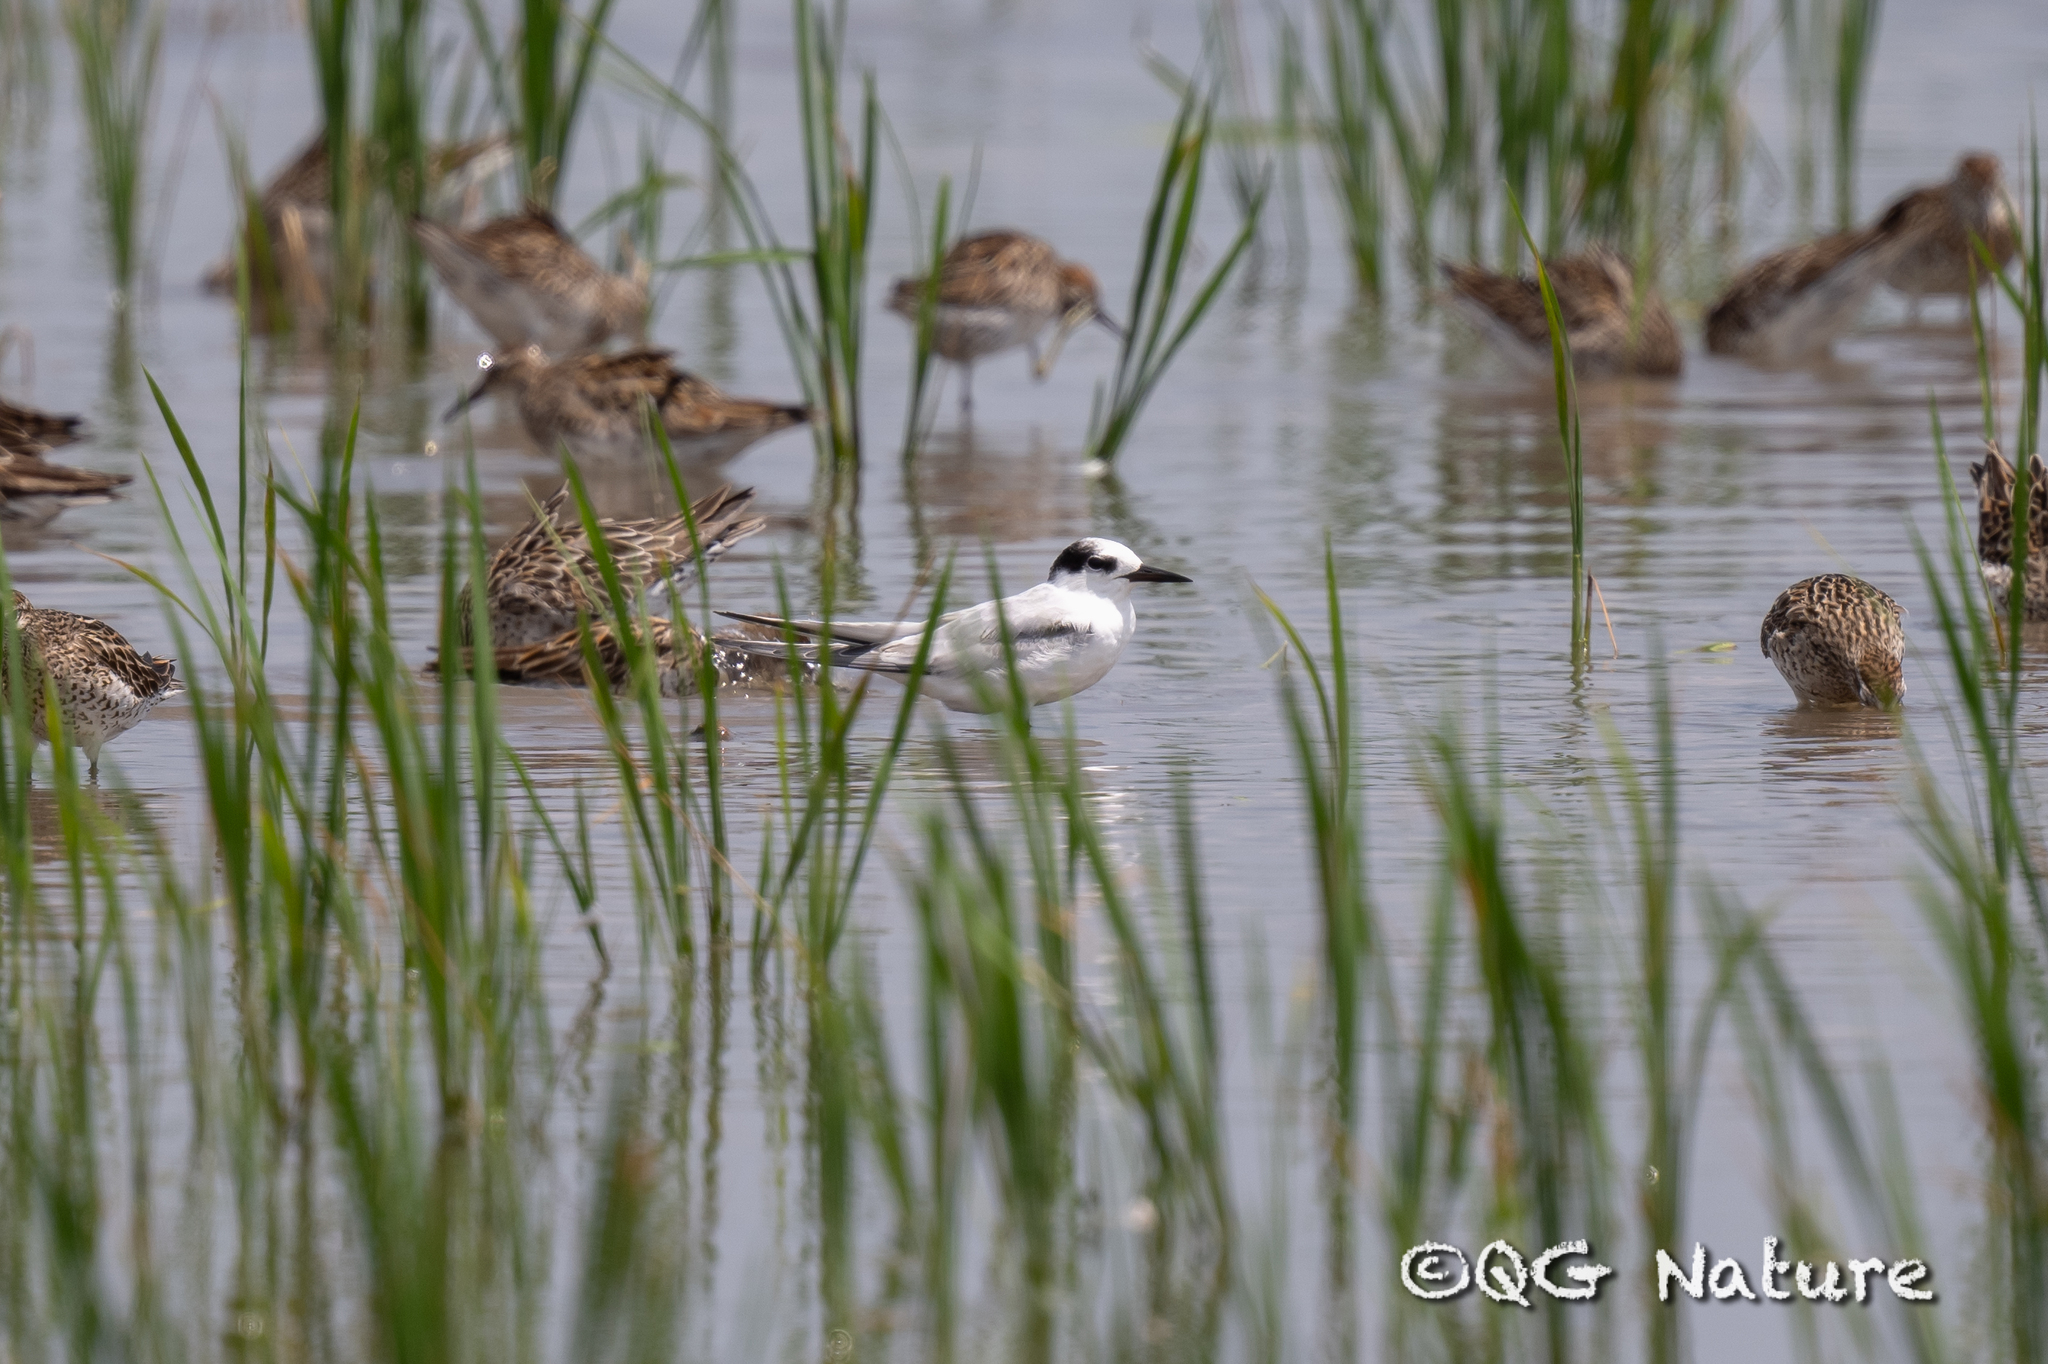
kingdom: Animalia
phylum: Chordata
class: Aves
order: Charadriiformes
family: Laridae
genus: Sternula
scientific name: Sternula albifrons
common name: Little tern
